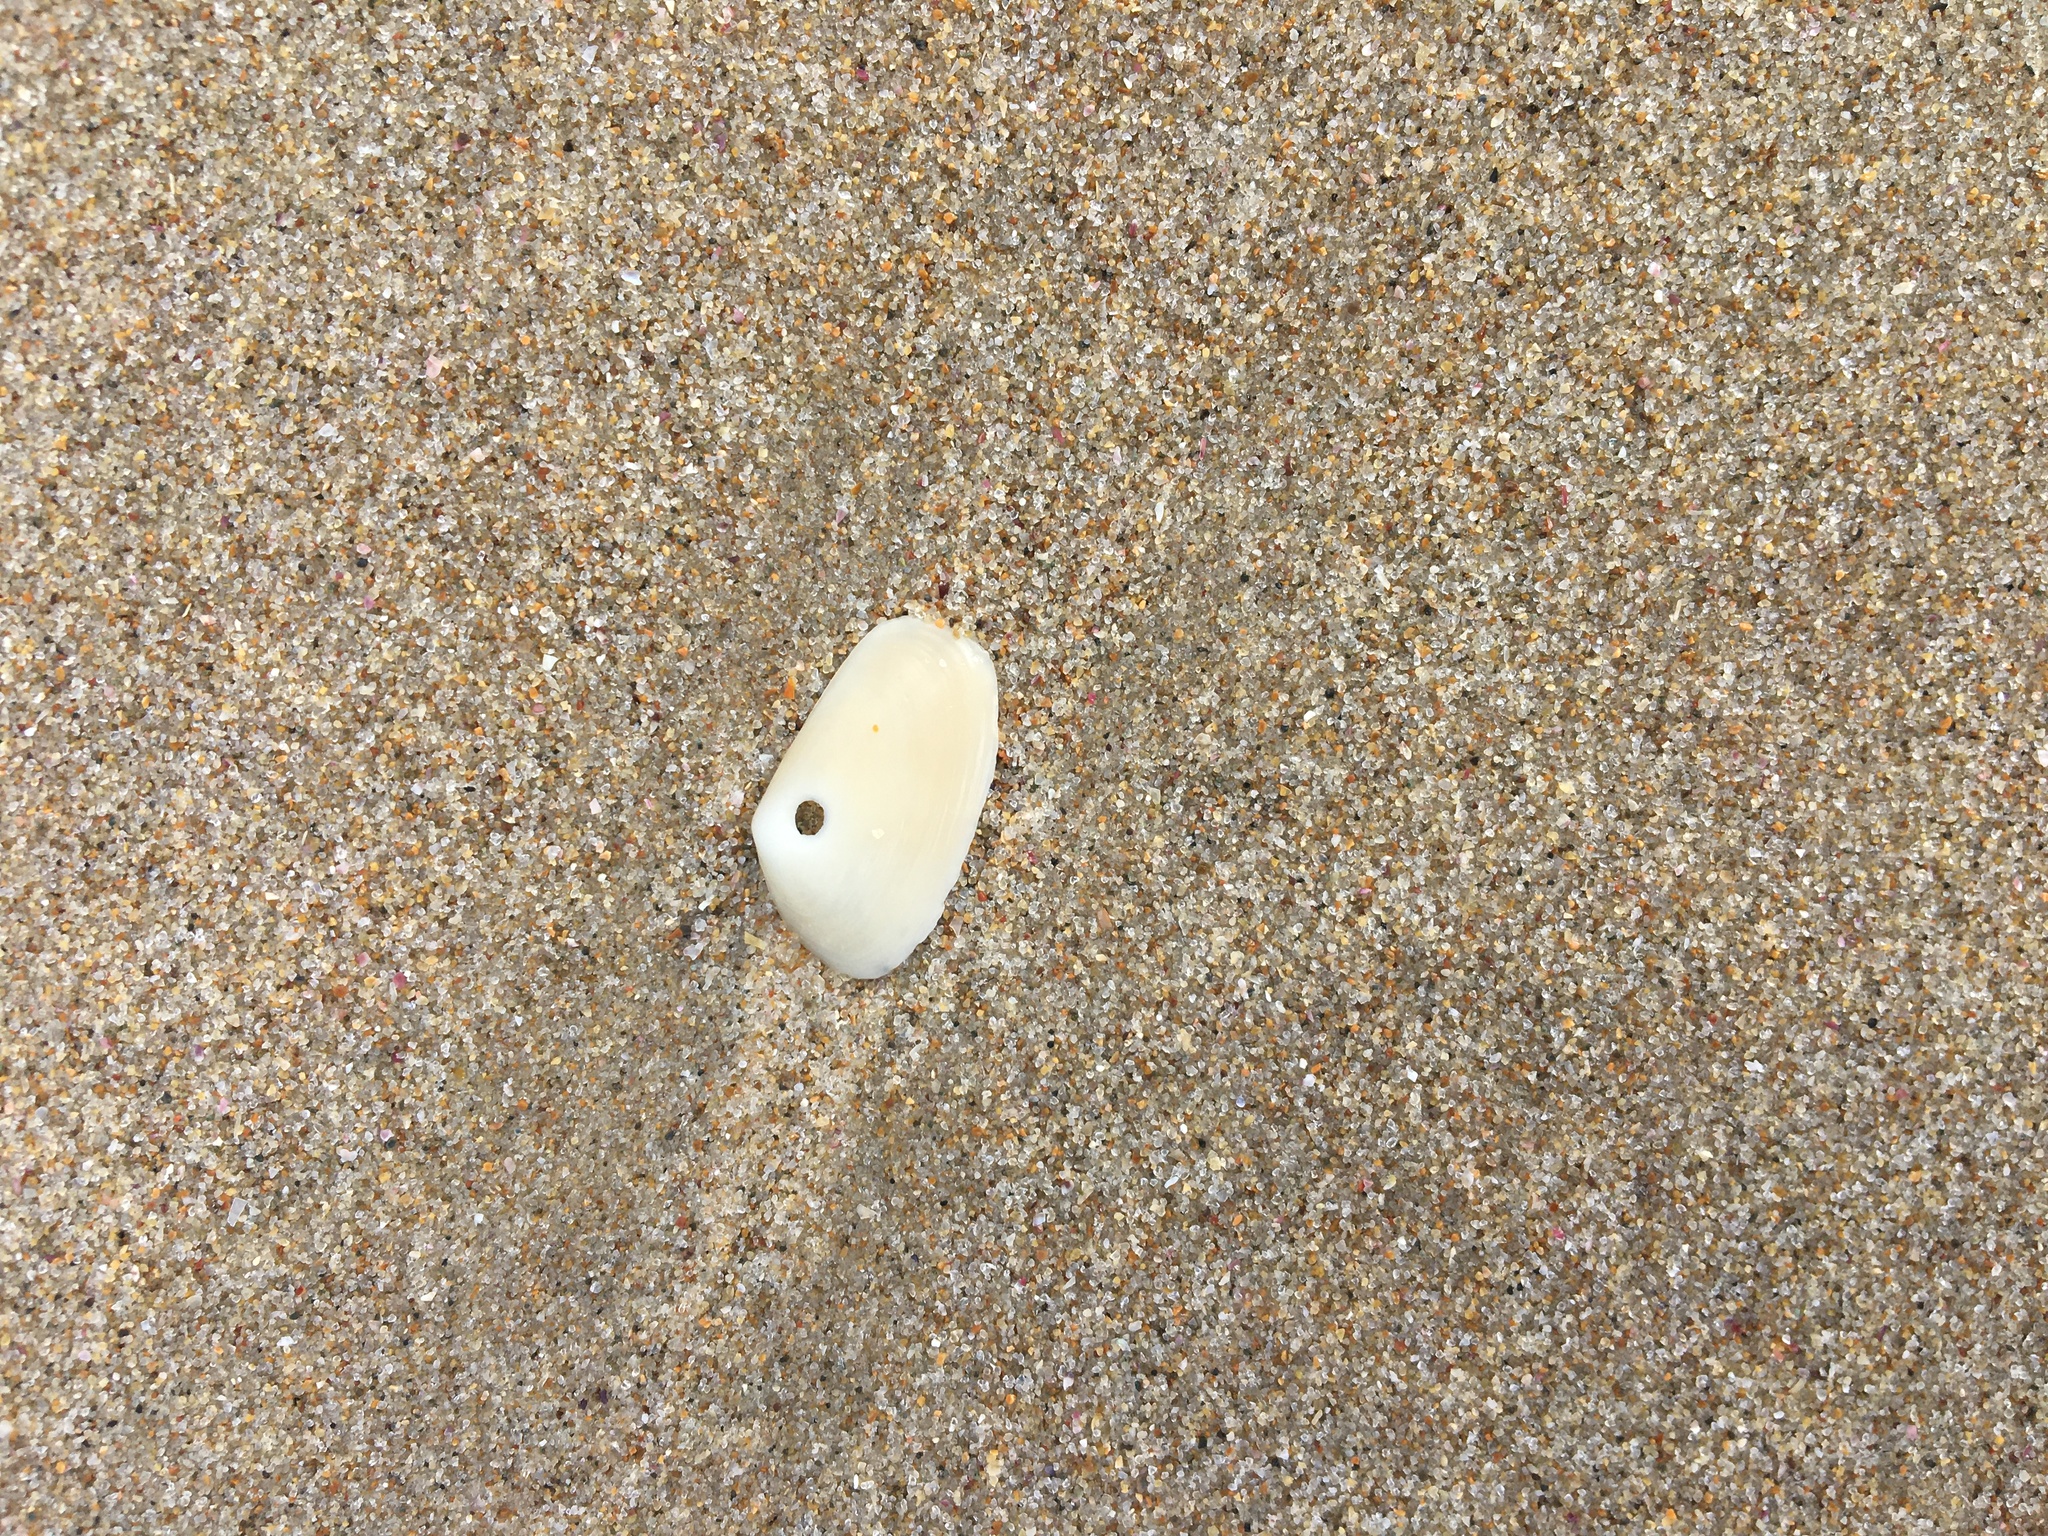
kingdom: Animalia
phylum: Mollusca
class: Bivalvia
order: Venerida
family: Mesodesmatidae
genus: Paphies
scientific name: Paphies angusta
